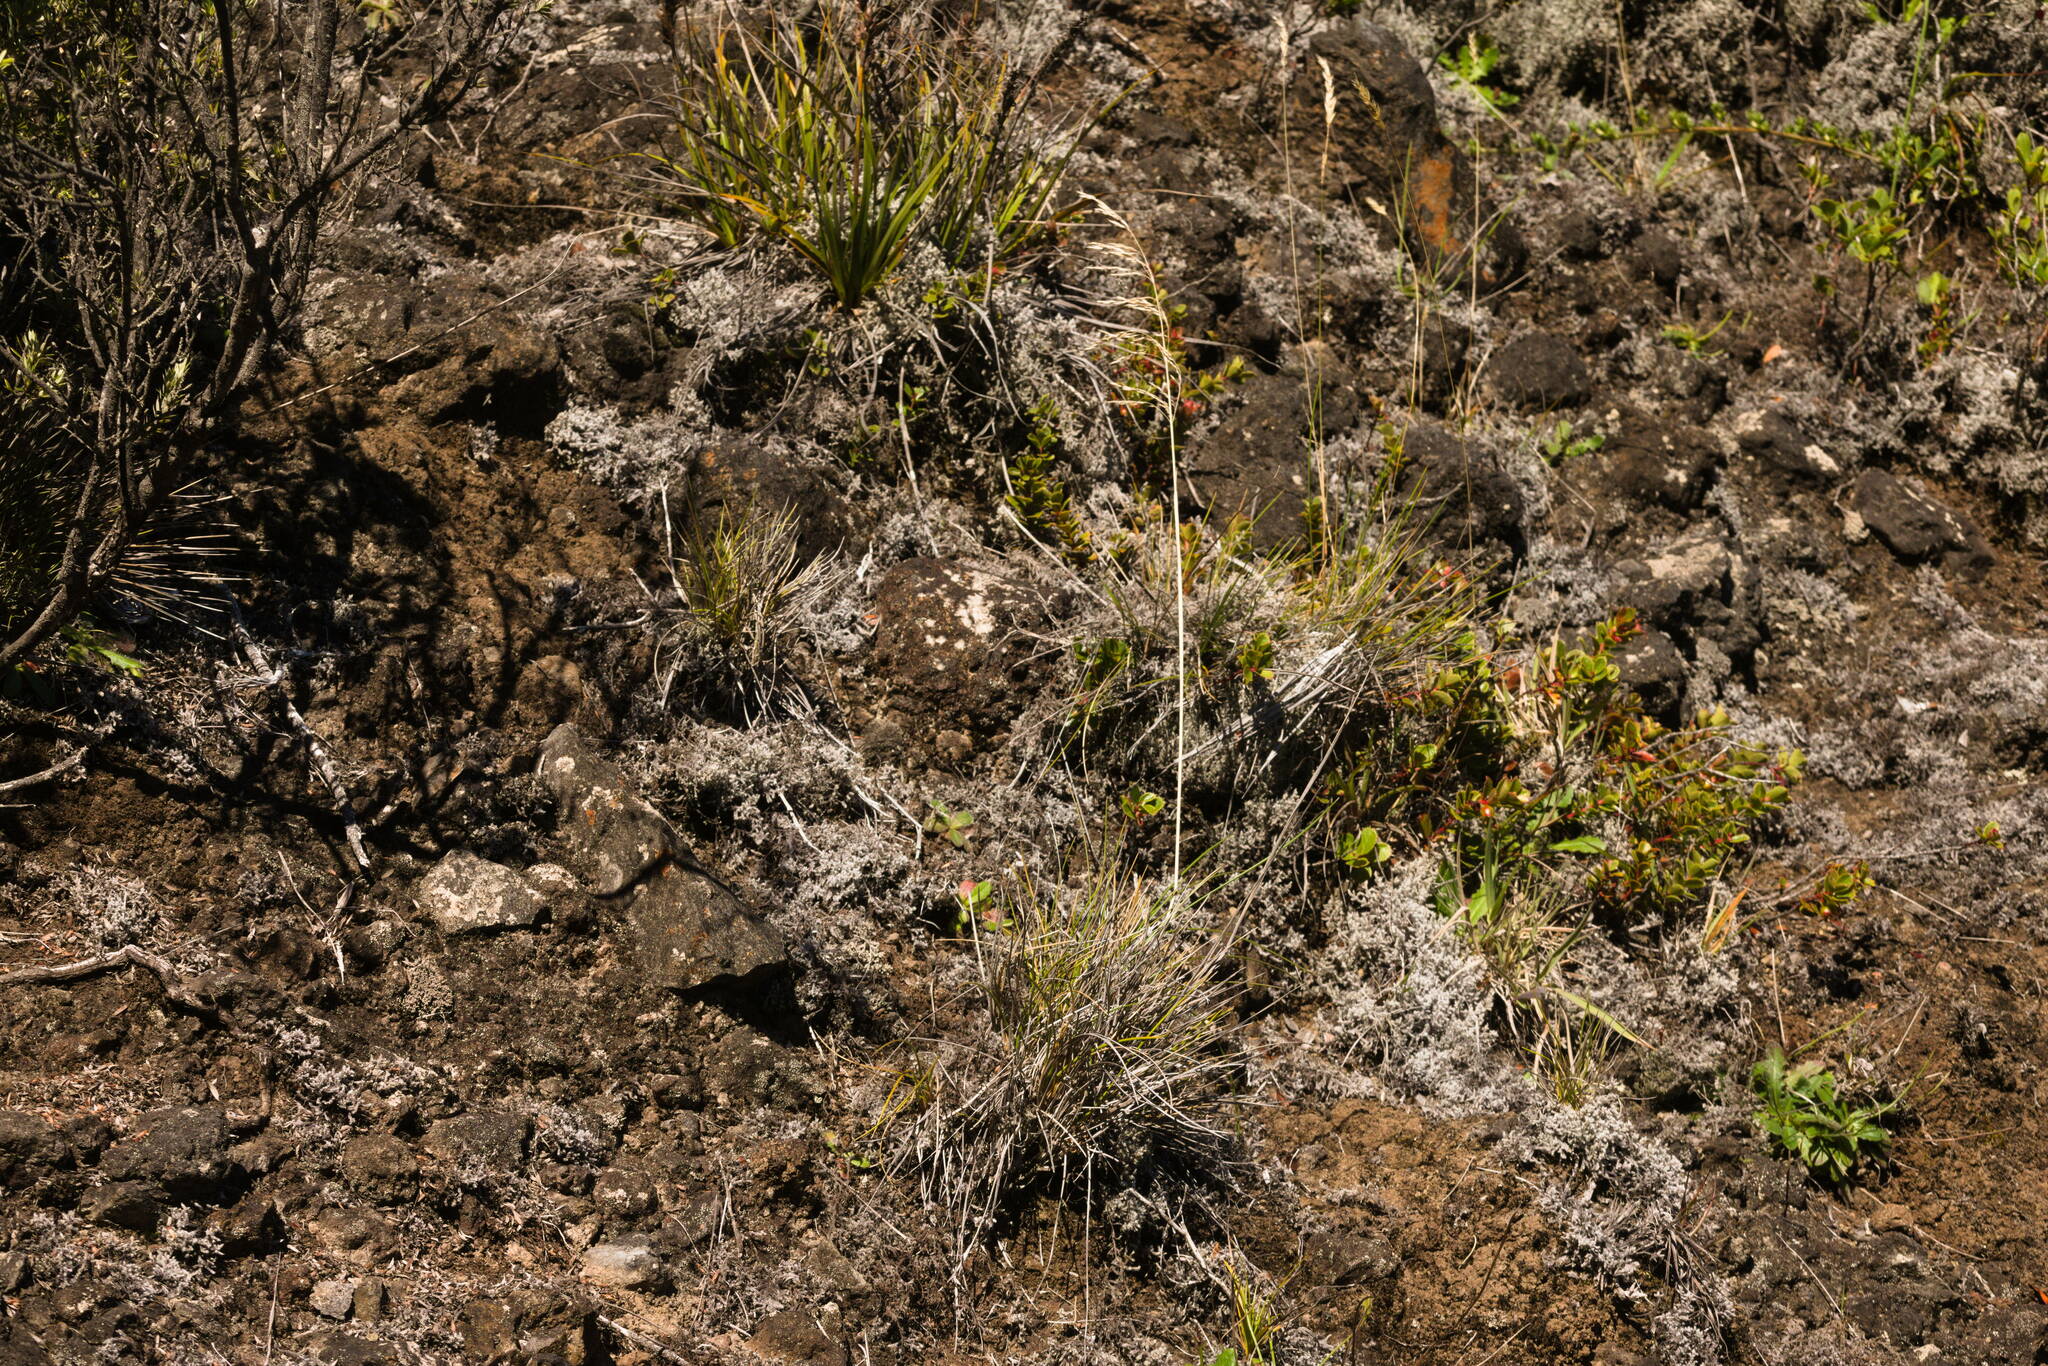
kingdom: Plantae
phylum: Tracheophyta
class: Liliopsida
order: Poales
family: Poaceae
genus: Deschampsia
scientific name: Deschampsia nubigena
